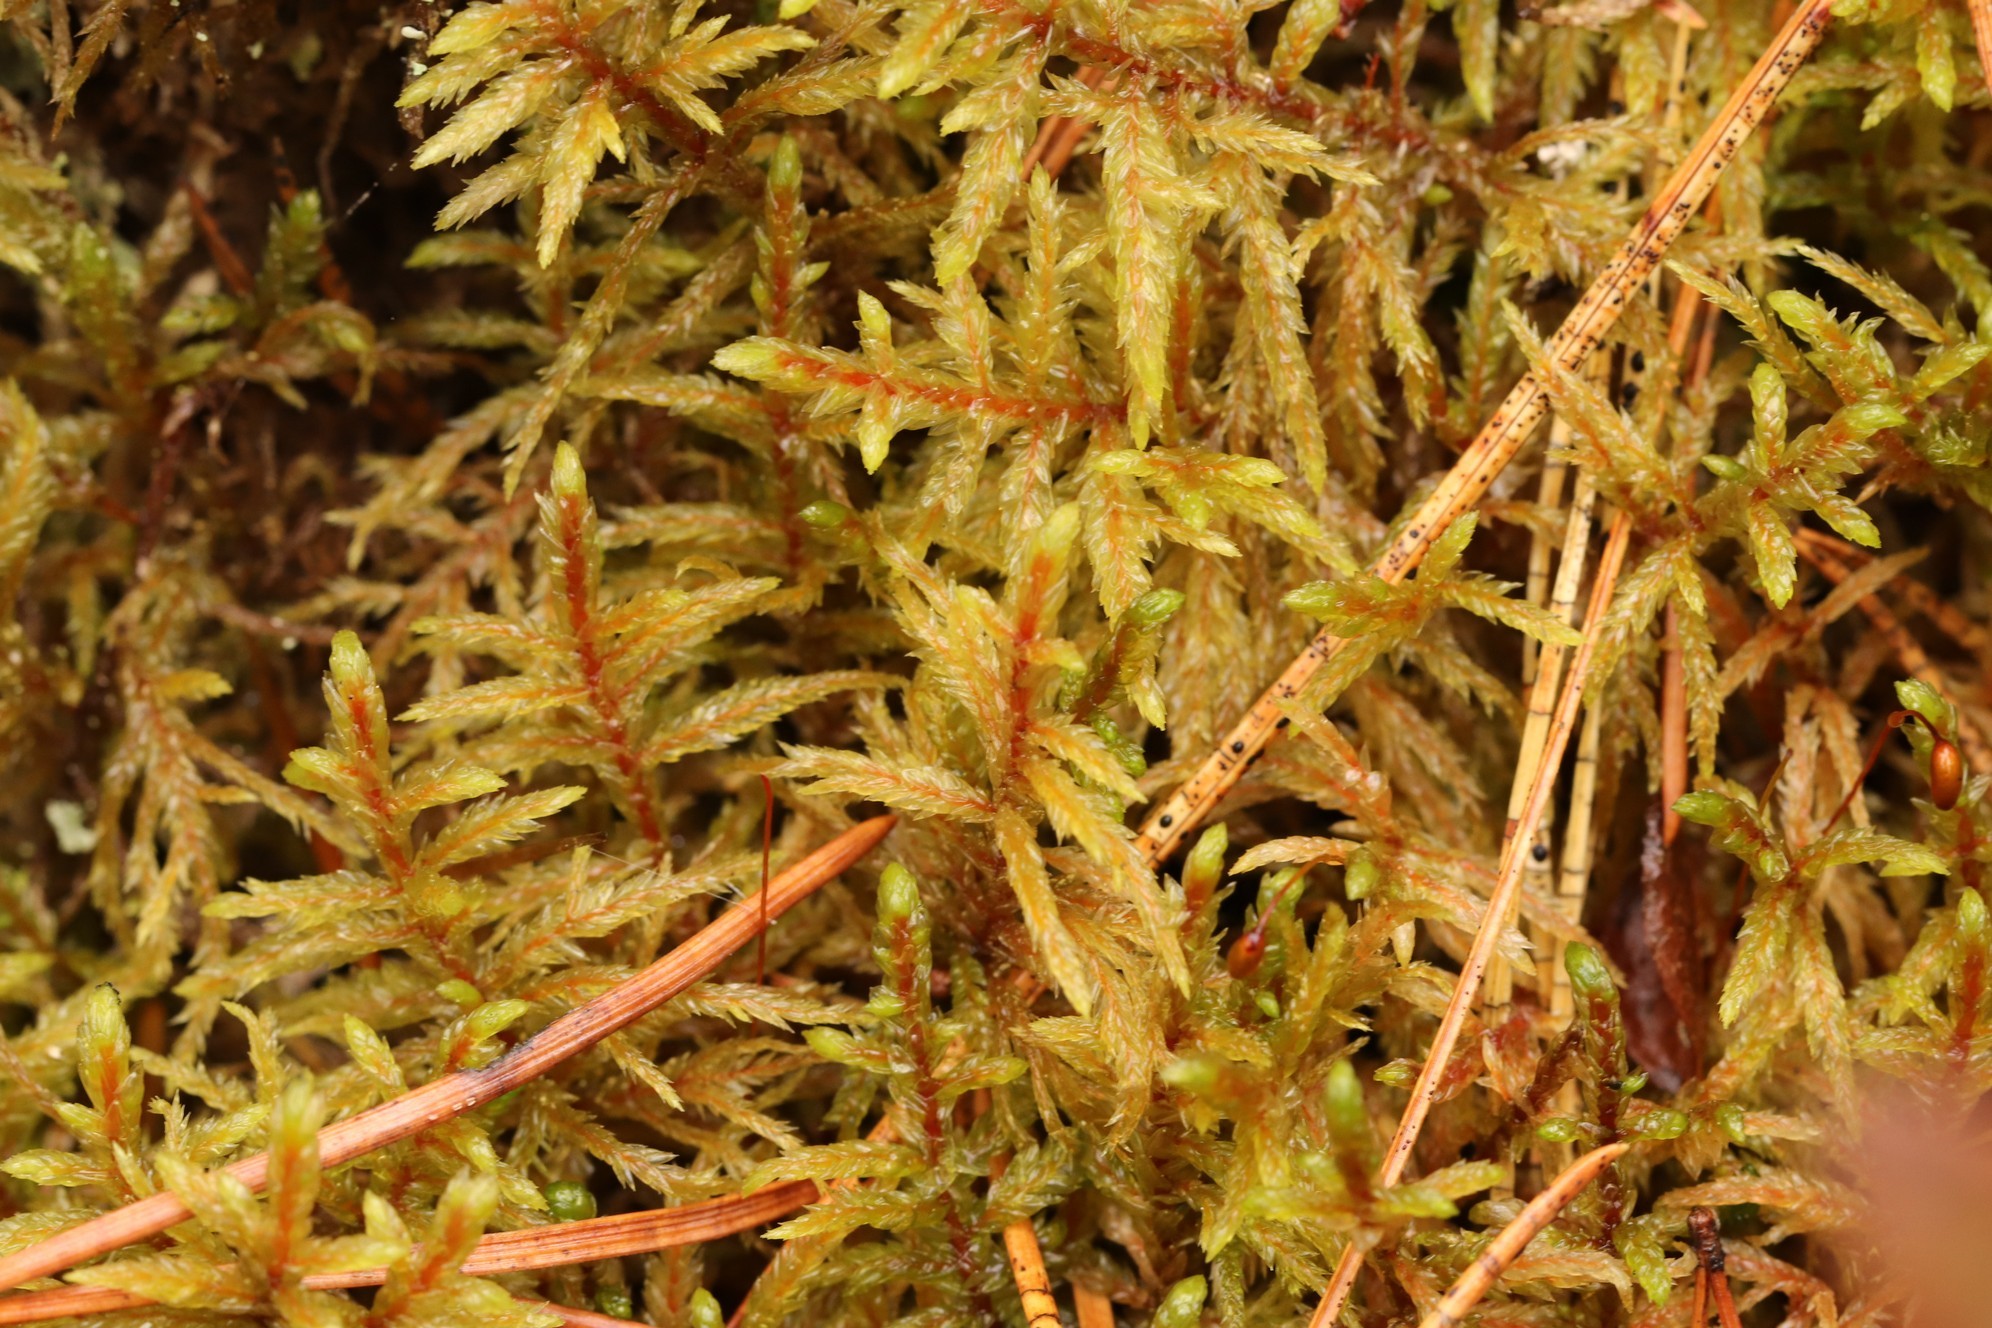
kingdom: Plantae
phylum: Bryophyta
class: Bryopsida
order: Hypnales
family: Hylocomiaceae
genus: Pleurozium
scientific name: Pleurozium schreberi
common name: Red-stemmed feather moss
